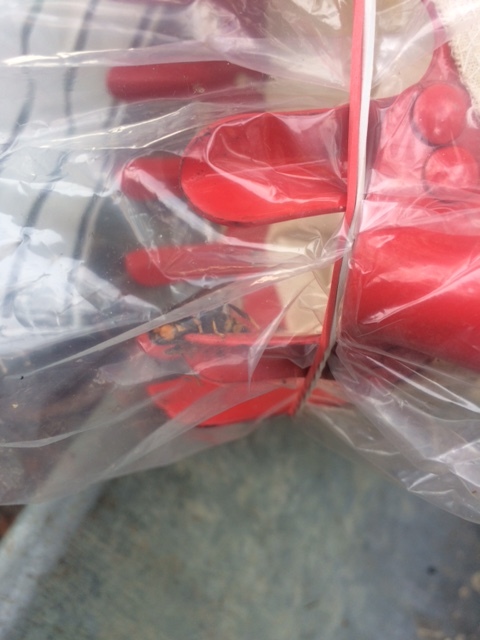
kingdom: Animalia
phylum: Arthropoda
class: Insecta
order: Hymenoptera
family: Vespidae
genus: Vespa
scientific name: Vespa velutina
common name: Asian hornet
